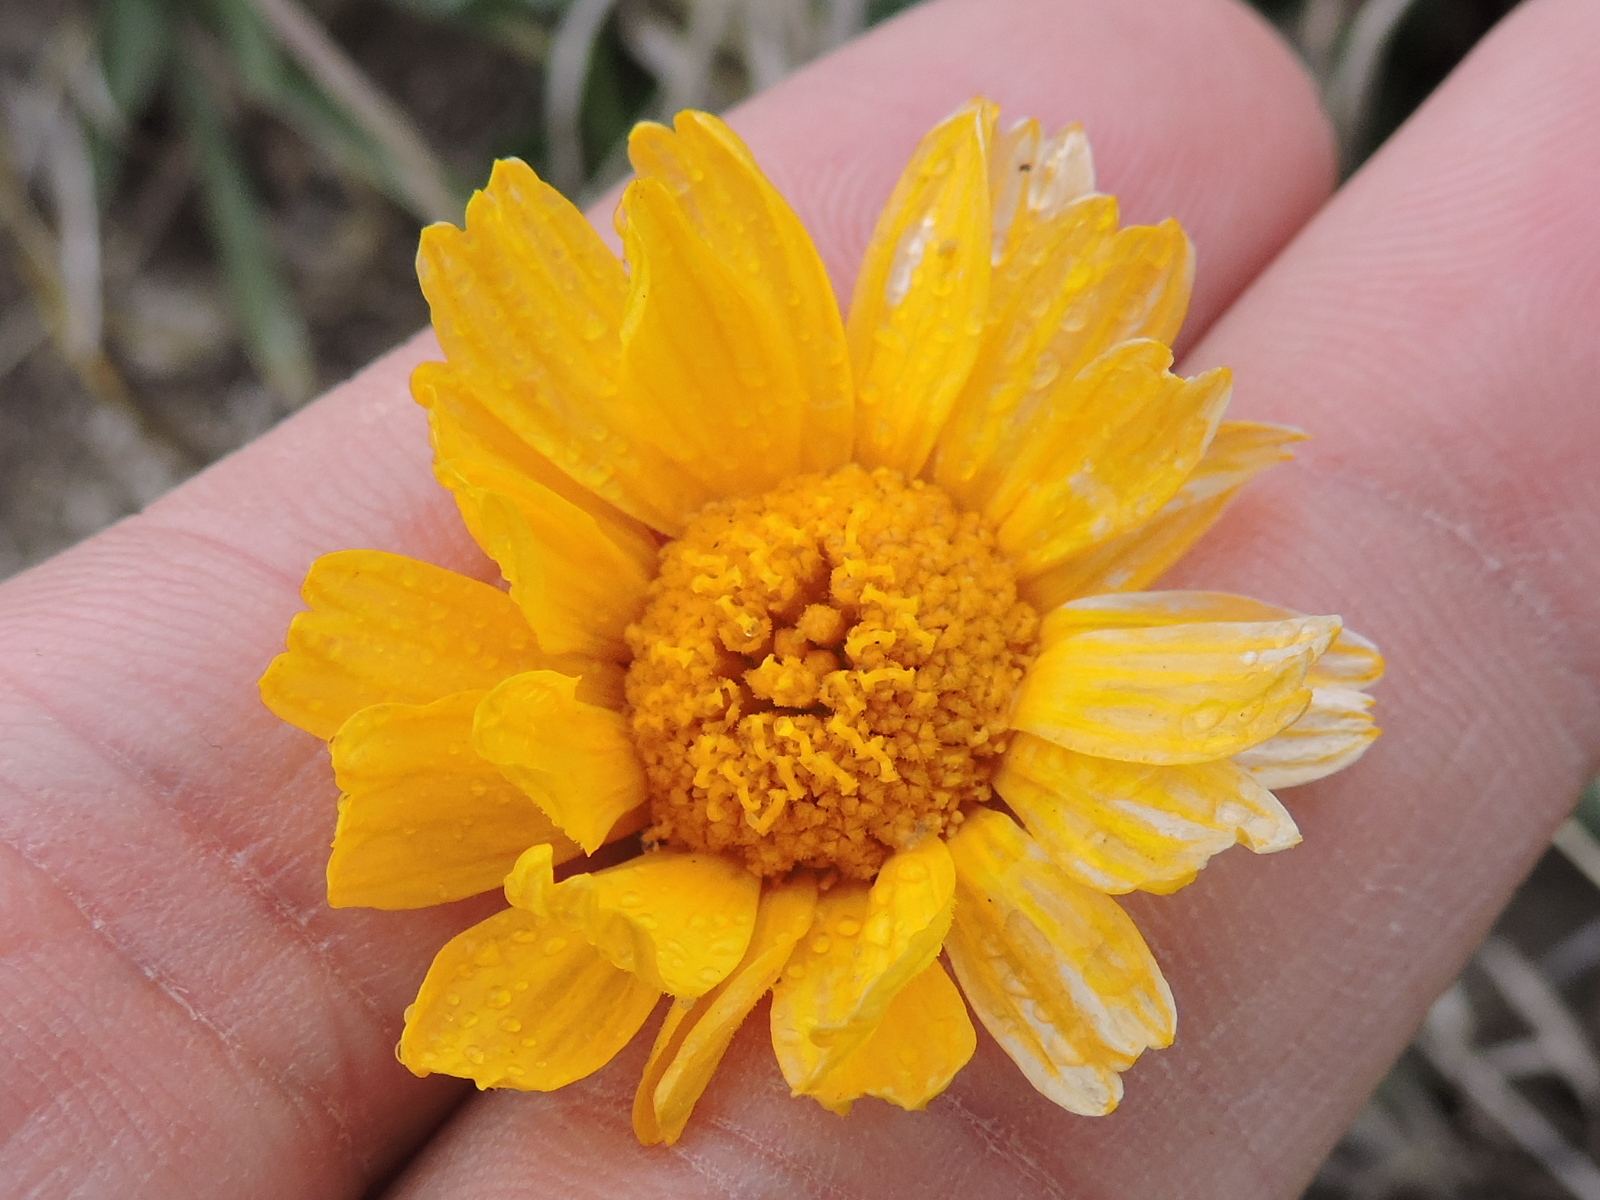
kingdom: Plantae
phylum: Tracheophyta
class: Magnoliopsida
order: Asterales
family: Asteraceae
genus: Tetraneuris
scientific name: Tetraneuris scaposa
